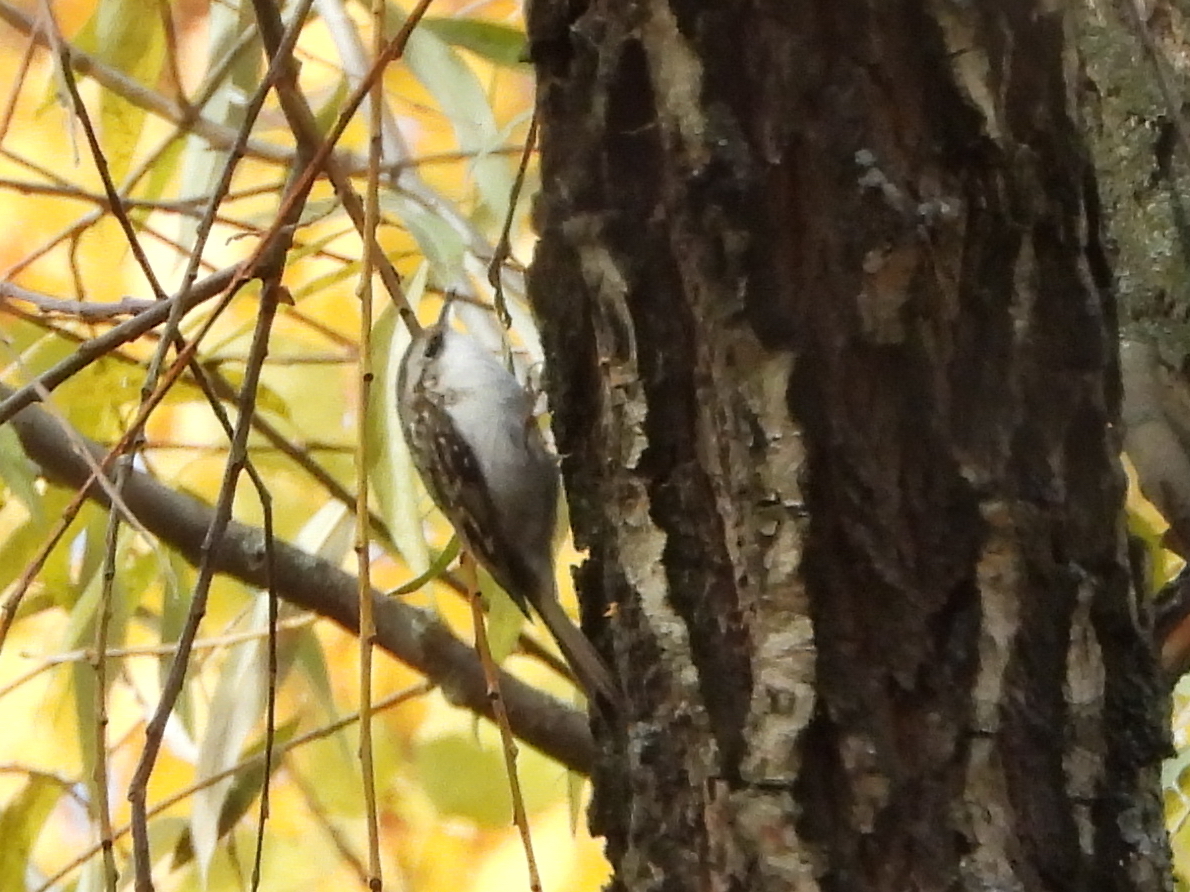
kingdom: Animalia
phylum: Chordata
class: Aves
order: Passeriformes
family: Certhiidae
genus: Certhia
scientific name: Certhia familiaris
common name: Eurasian treecreeper
